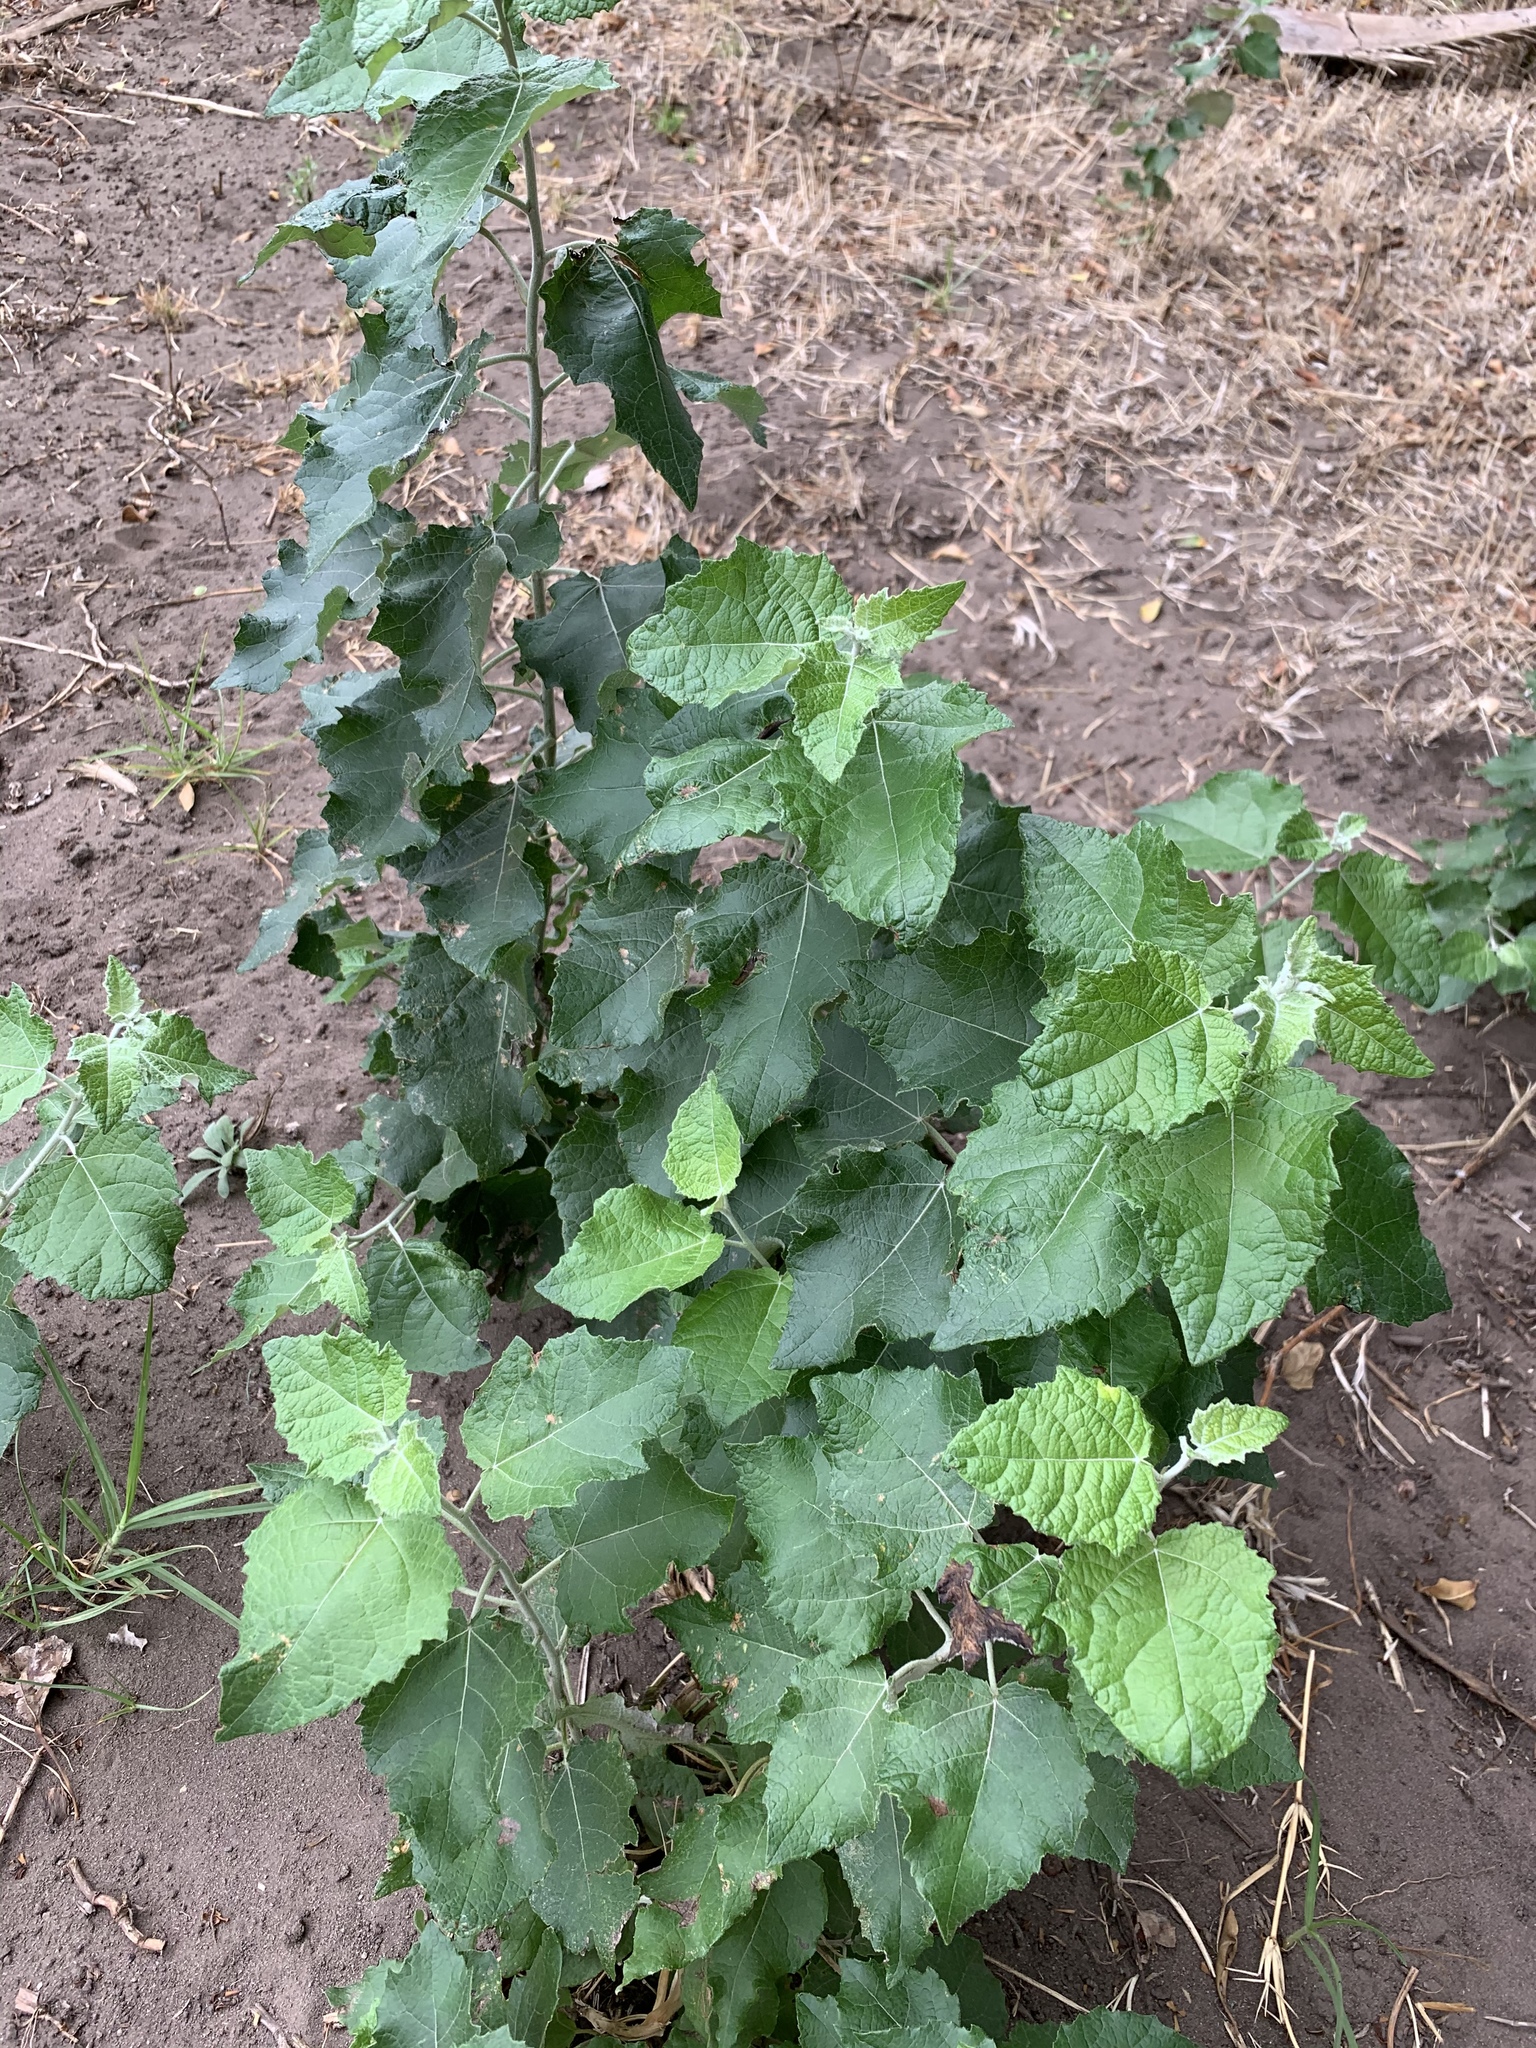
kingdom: Plantae
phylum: Tracheophyta
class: Magnoliopsida
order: Malpighiales
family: Salicaceae
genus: Populus
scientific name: Populus canescens
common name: Gray poplar
